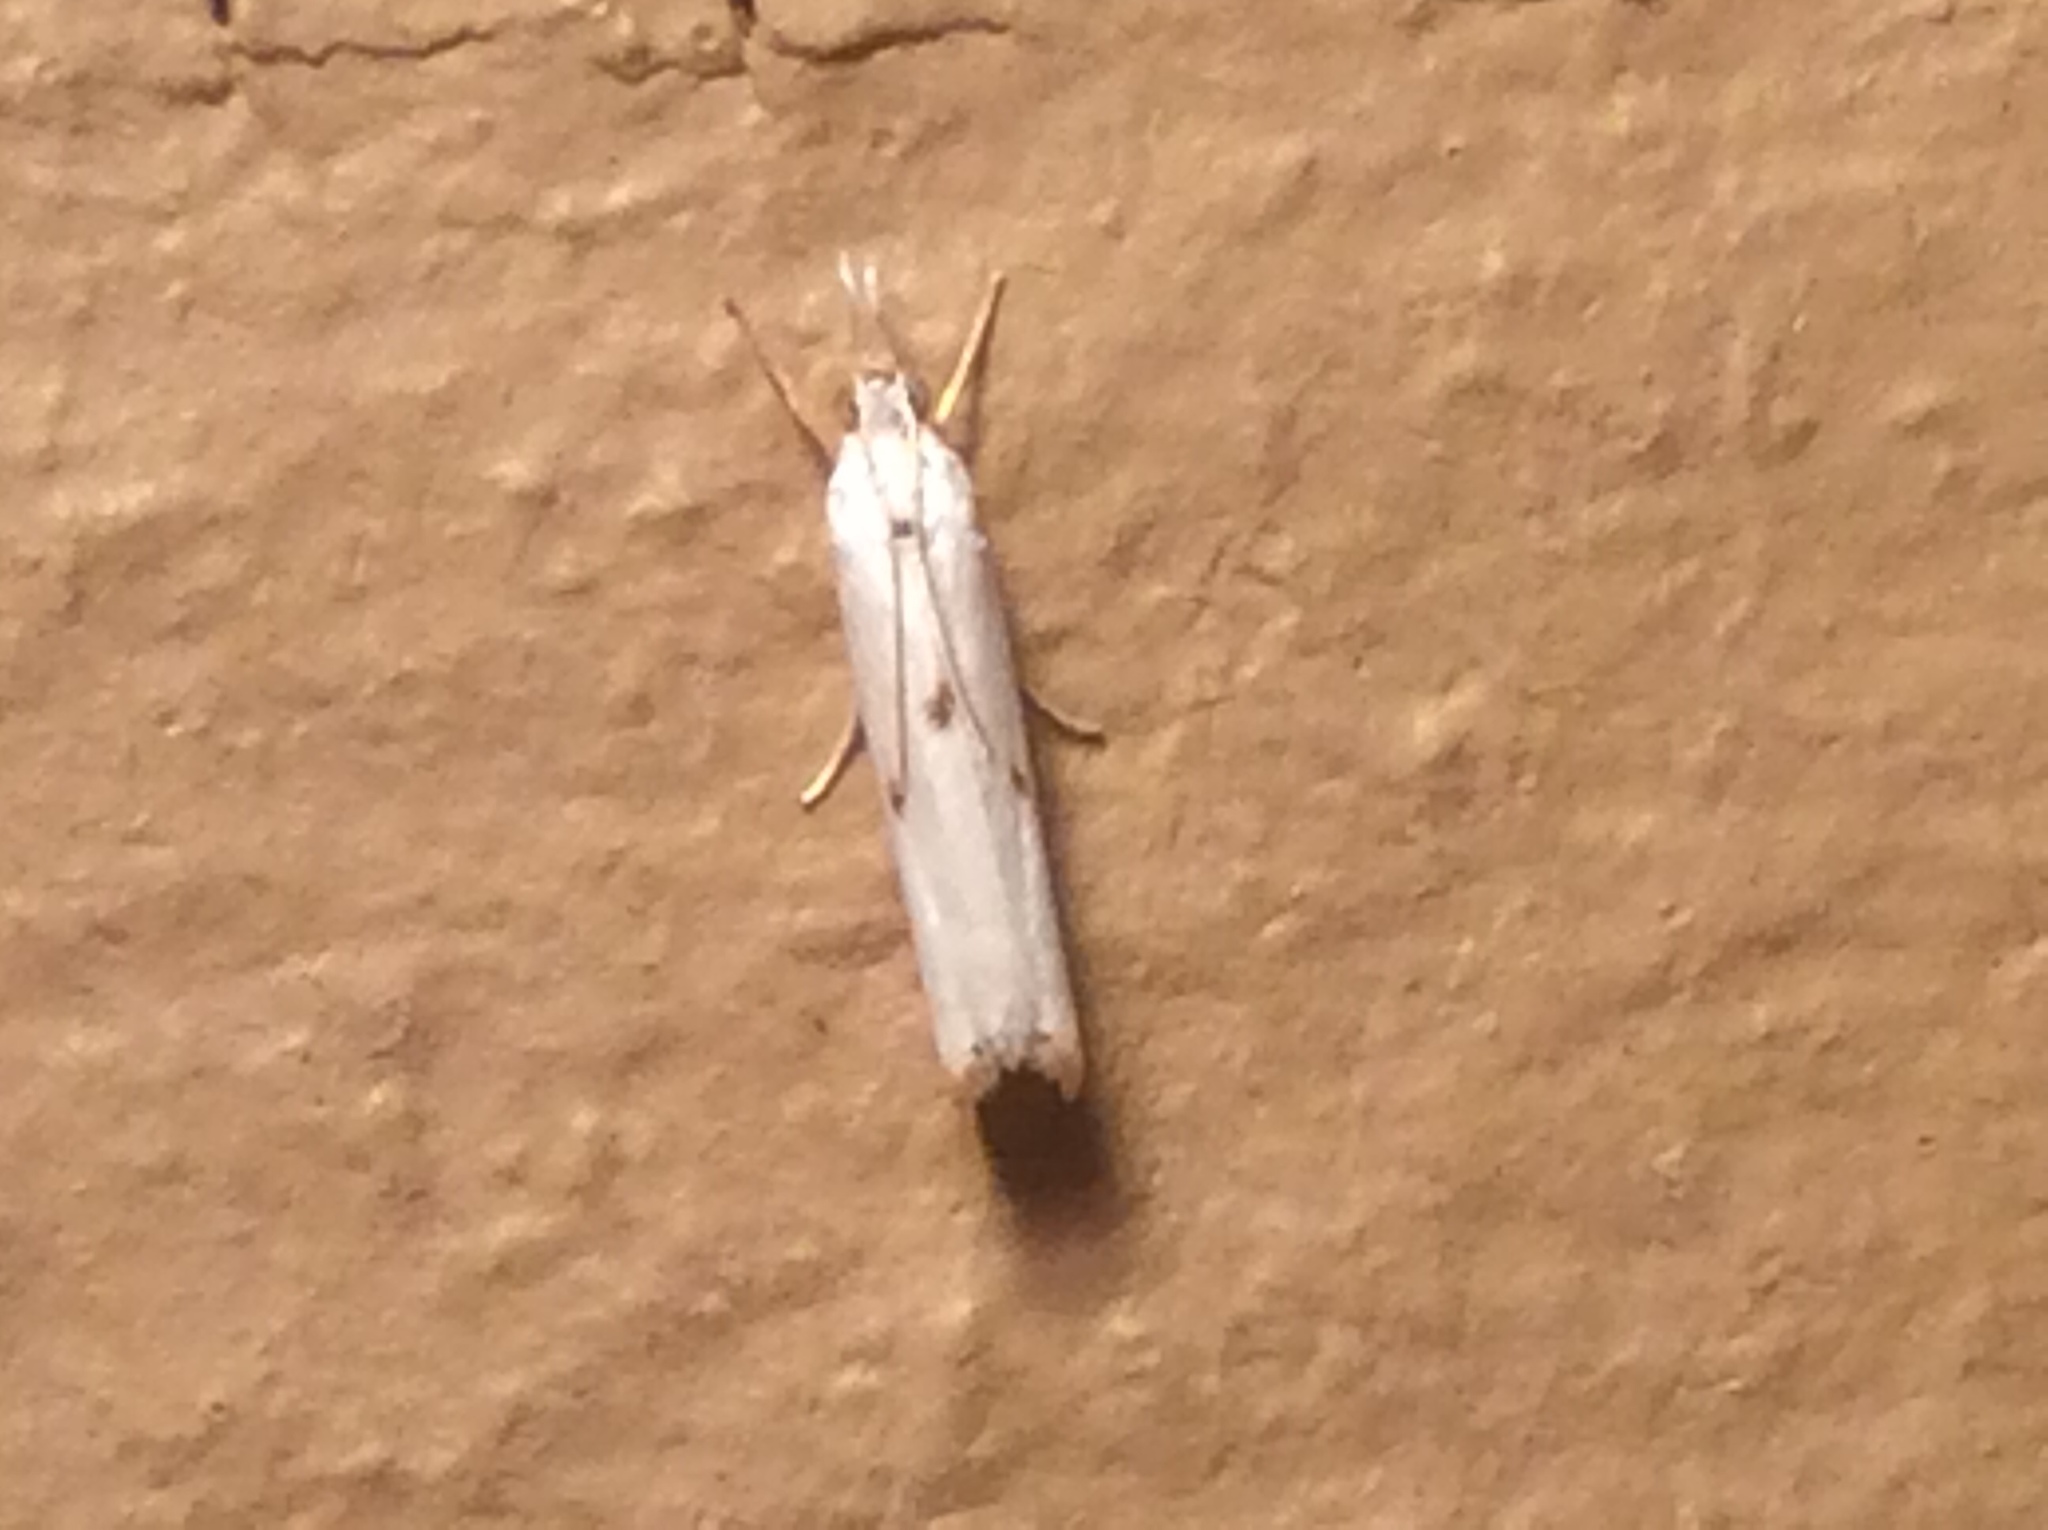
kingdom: Animalia
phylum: Arthropoda
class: Insecta
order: Lepidoptera
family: Crambidae
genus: Microcrambus
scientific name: Microcrambus biguttellus
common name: Gold-stripe grass-veneer moth
